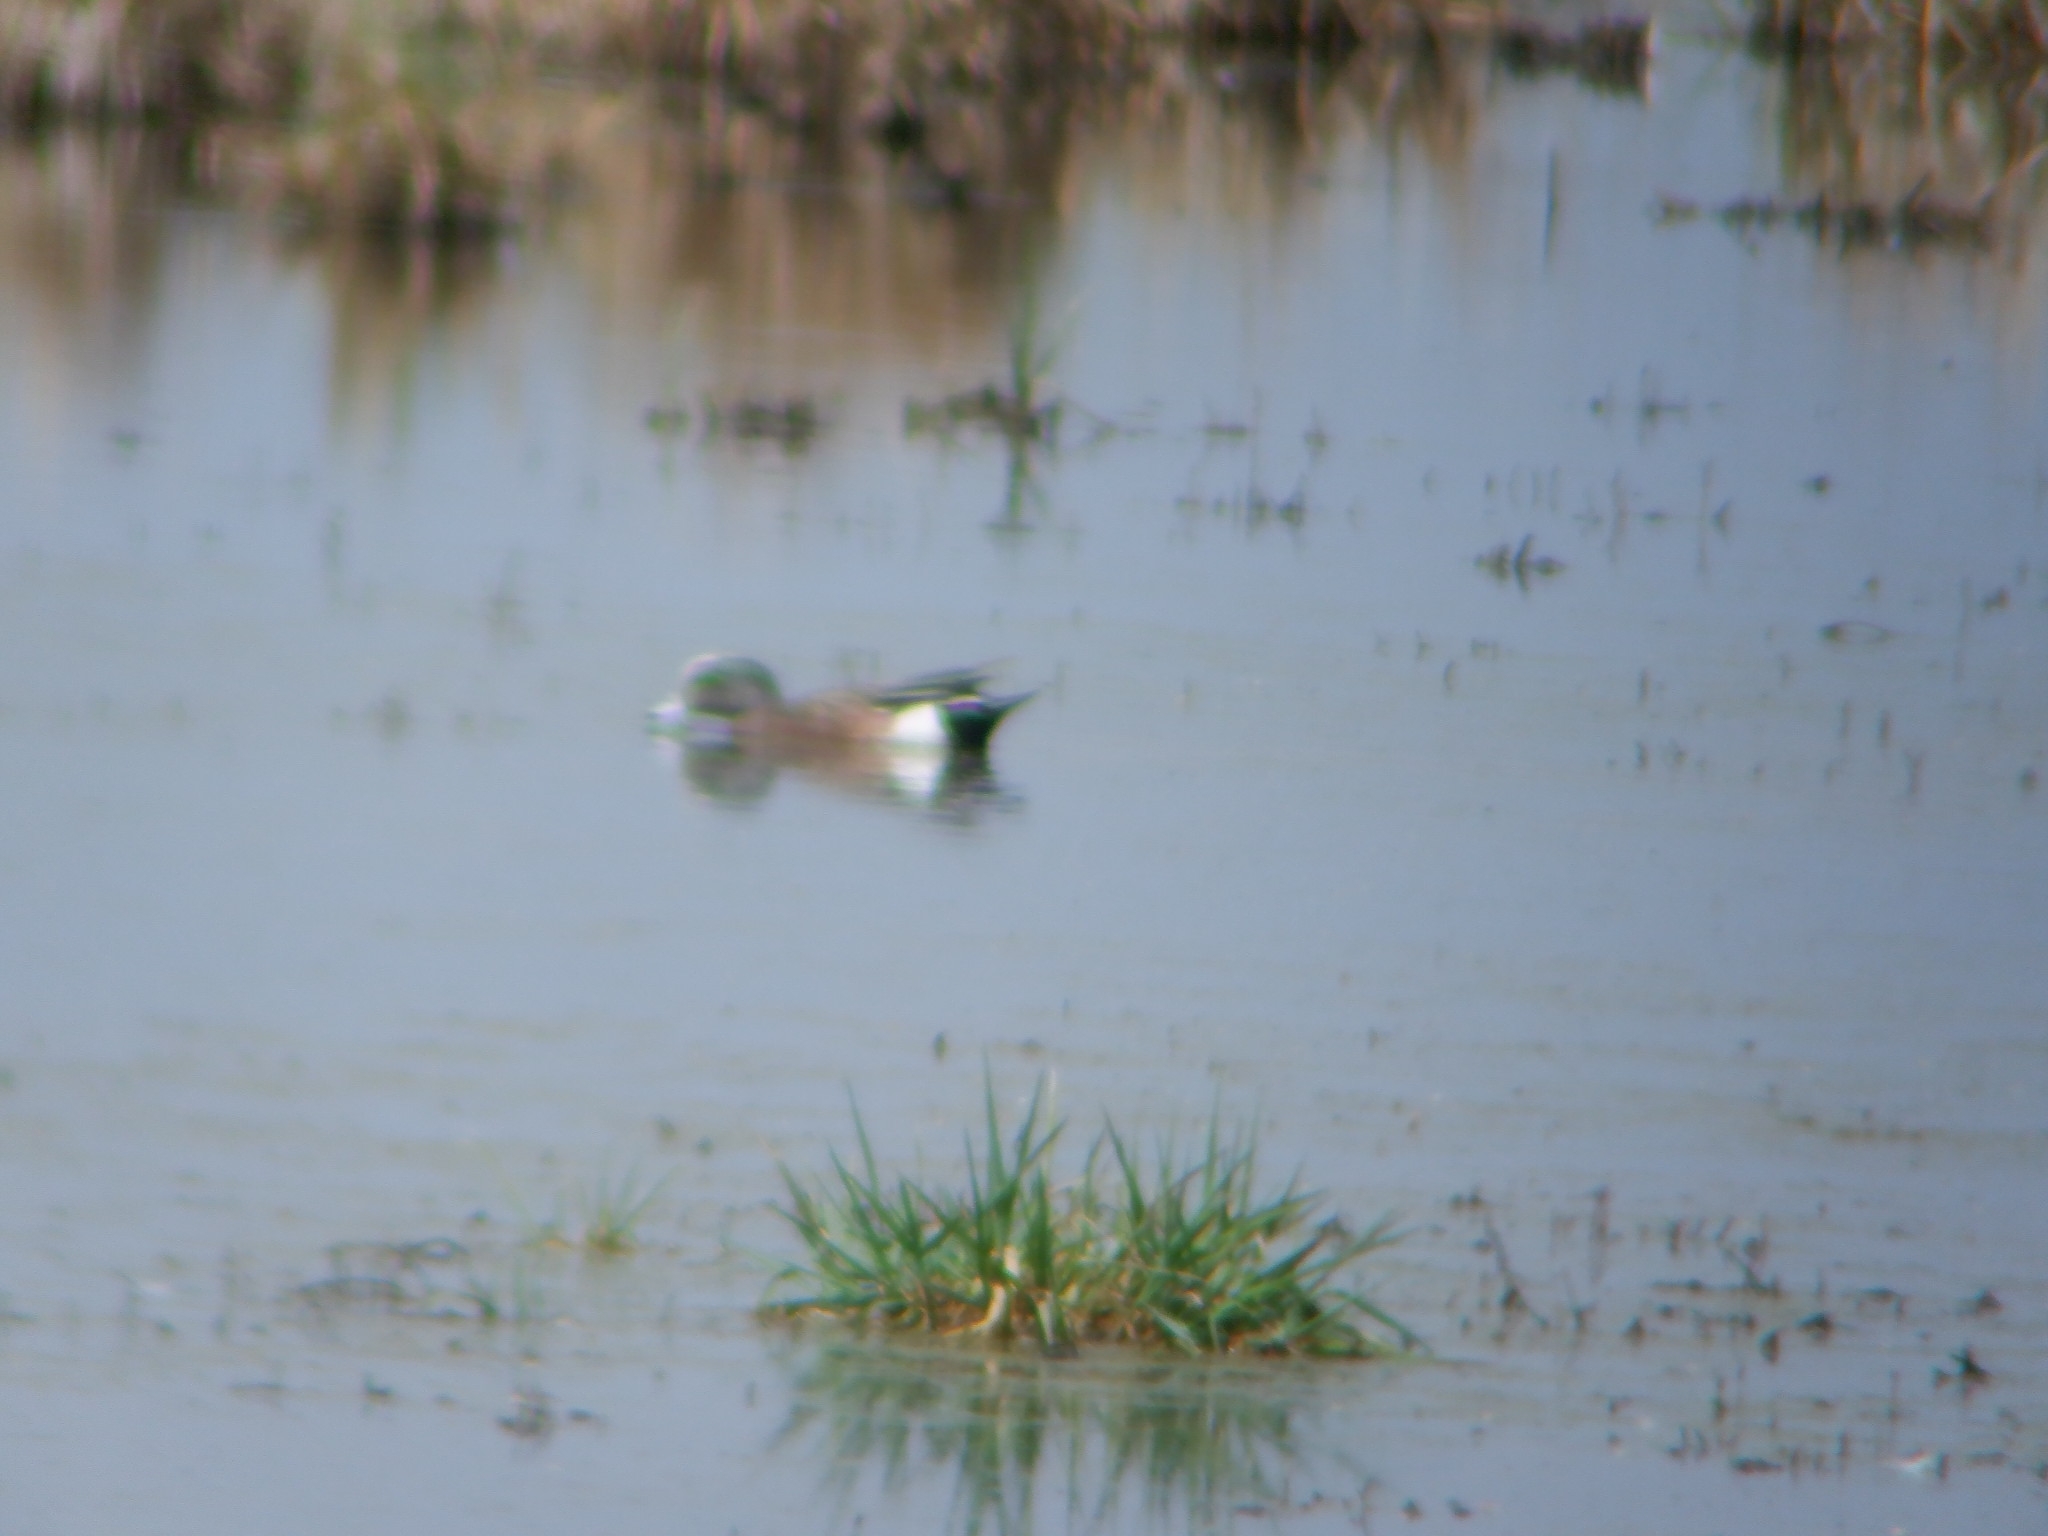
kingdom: Animalia
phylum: Chordata
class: Aves
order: Anseriformes
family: Anatidae
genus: Mareca
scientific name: Mareca americana
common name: American wigeon
